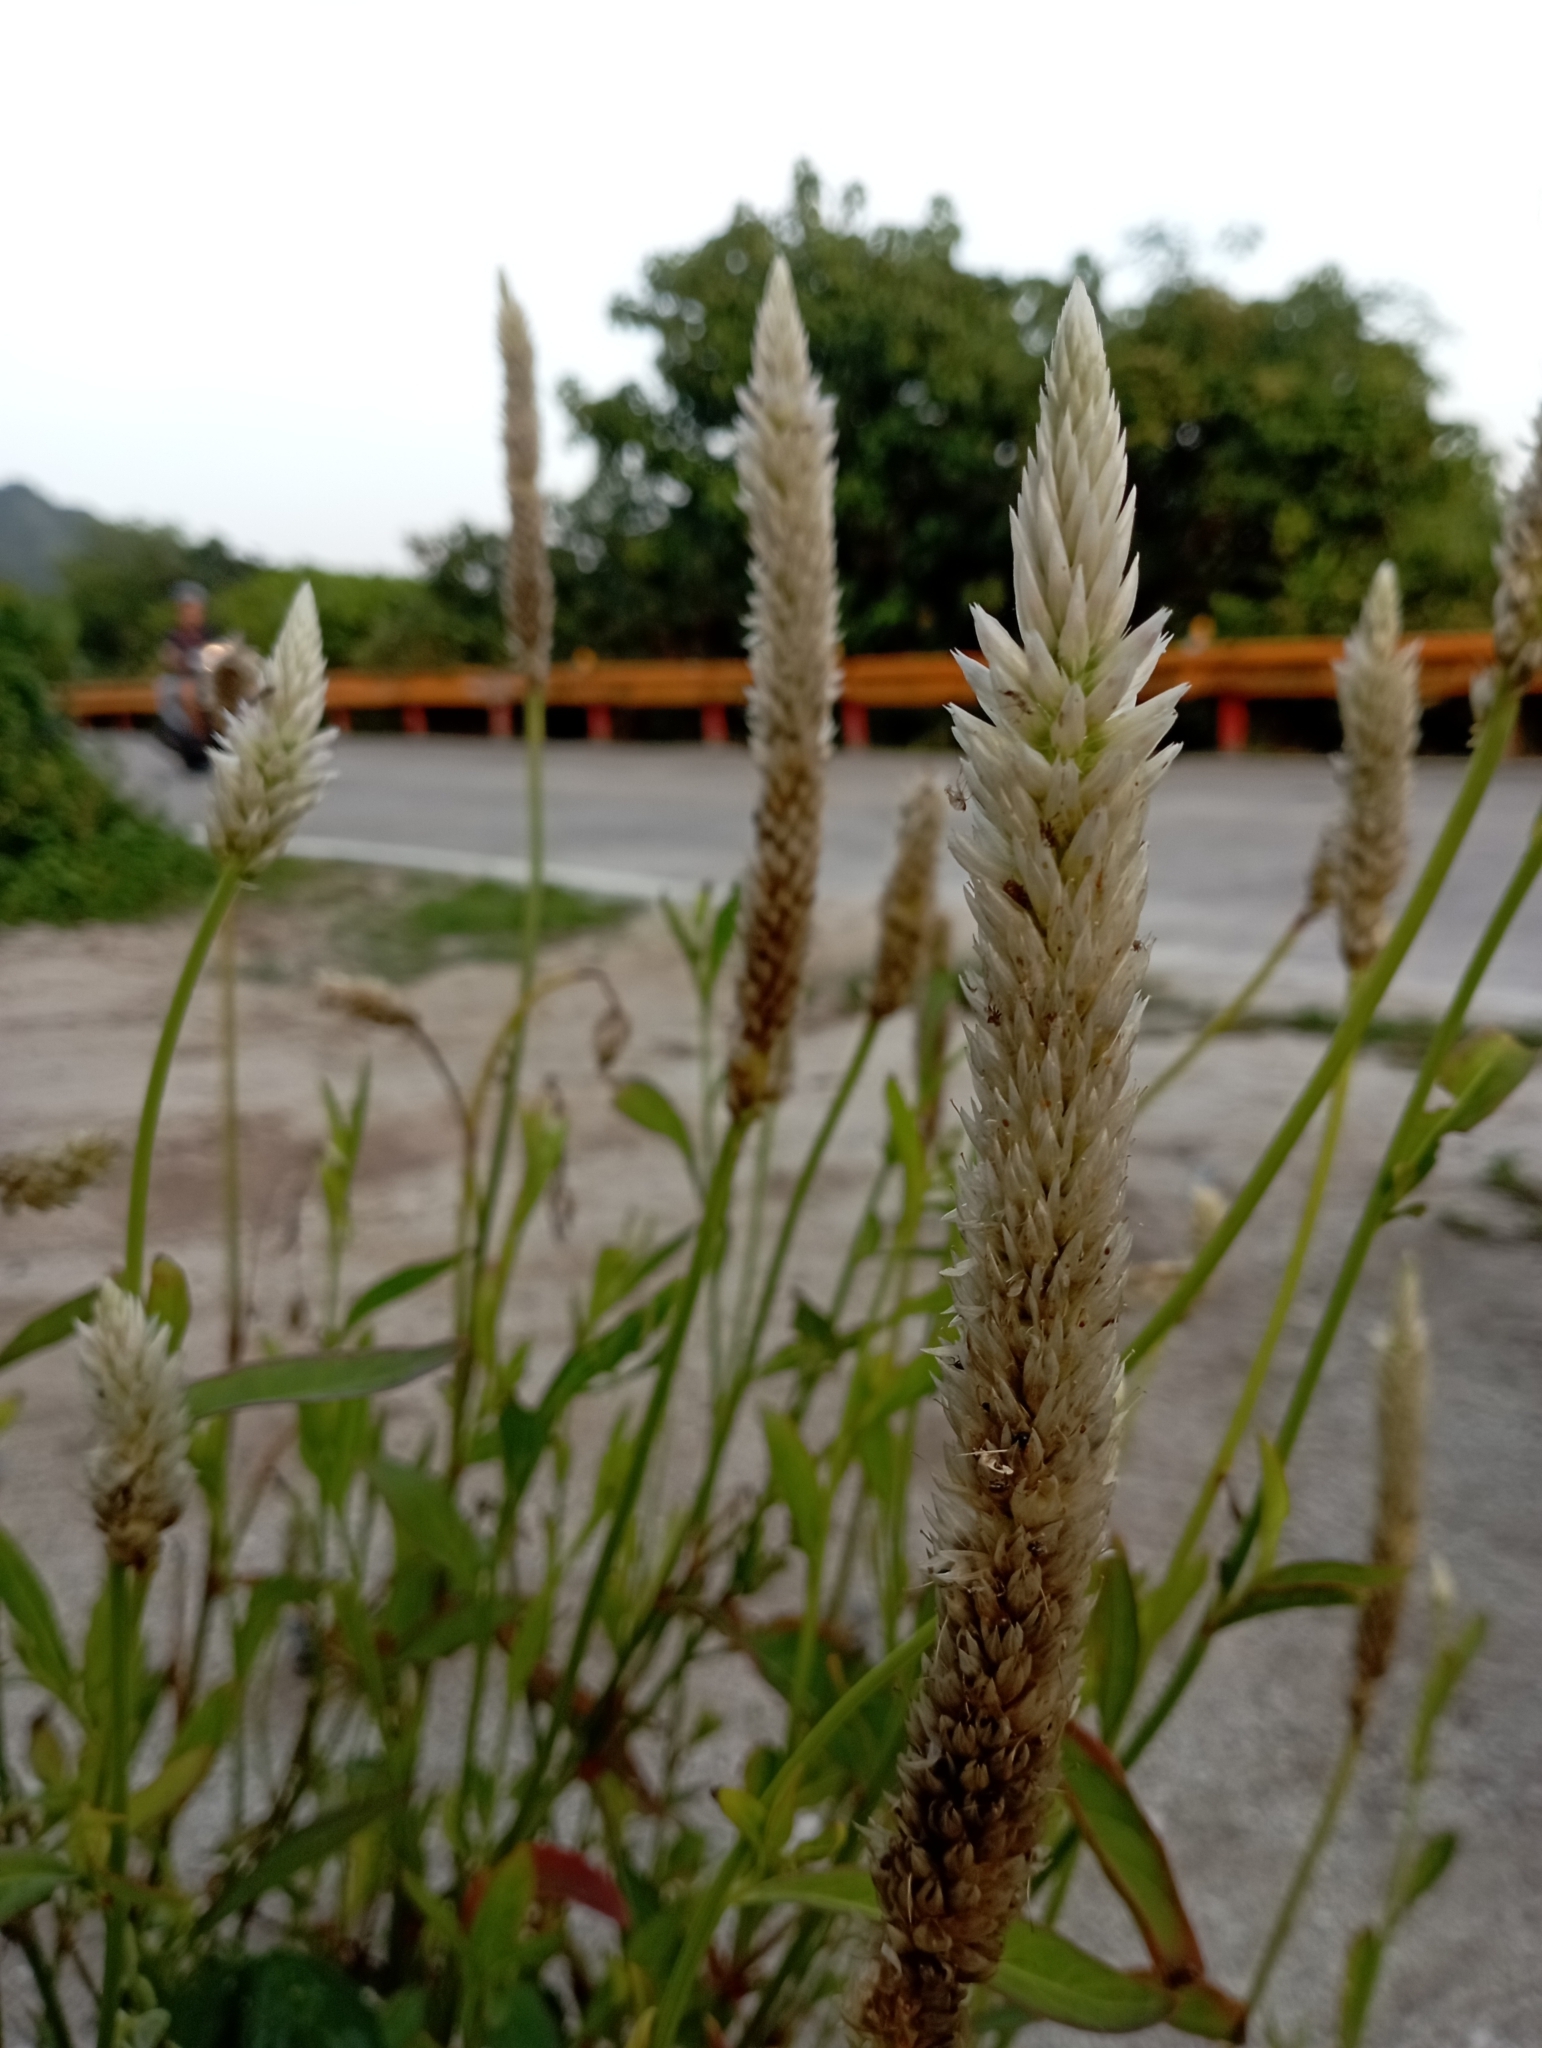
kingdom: Plantae
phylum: Tracheophyta
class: Magnoliopsida
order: Caryophyllales
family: Amaranthaceae
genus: Celosia
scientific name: Celosia argentea
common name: Feather cockscomb
